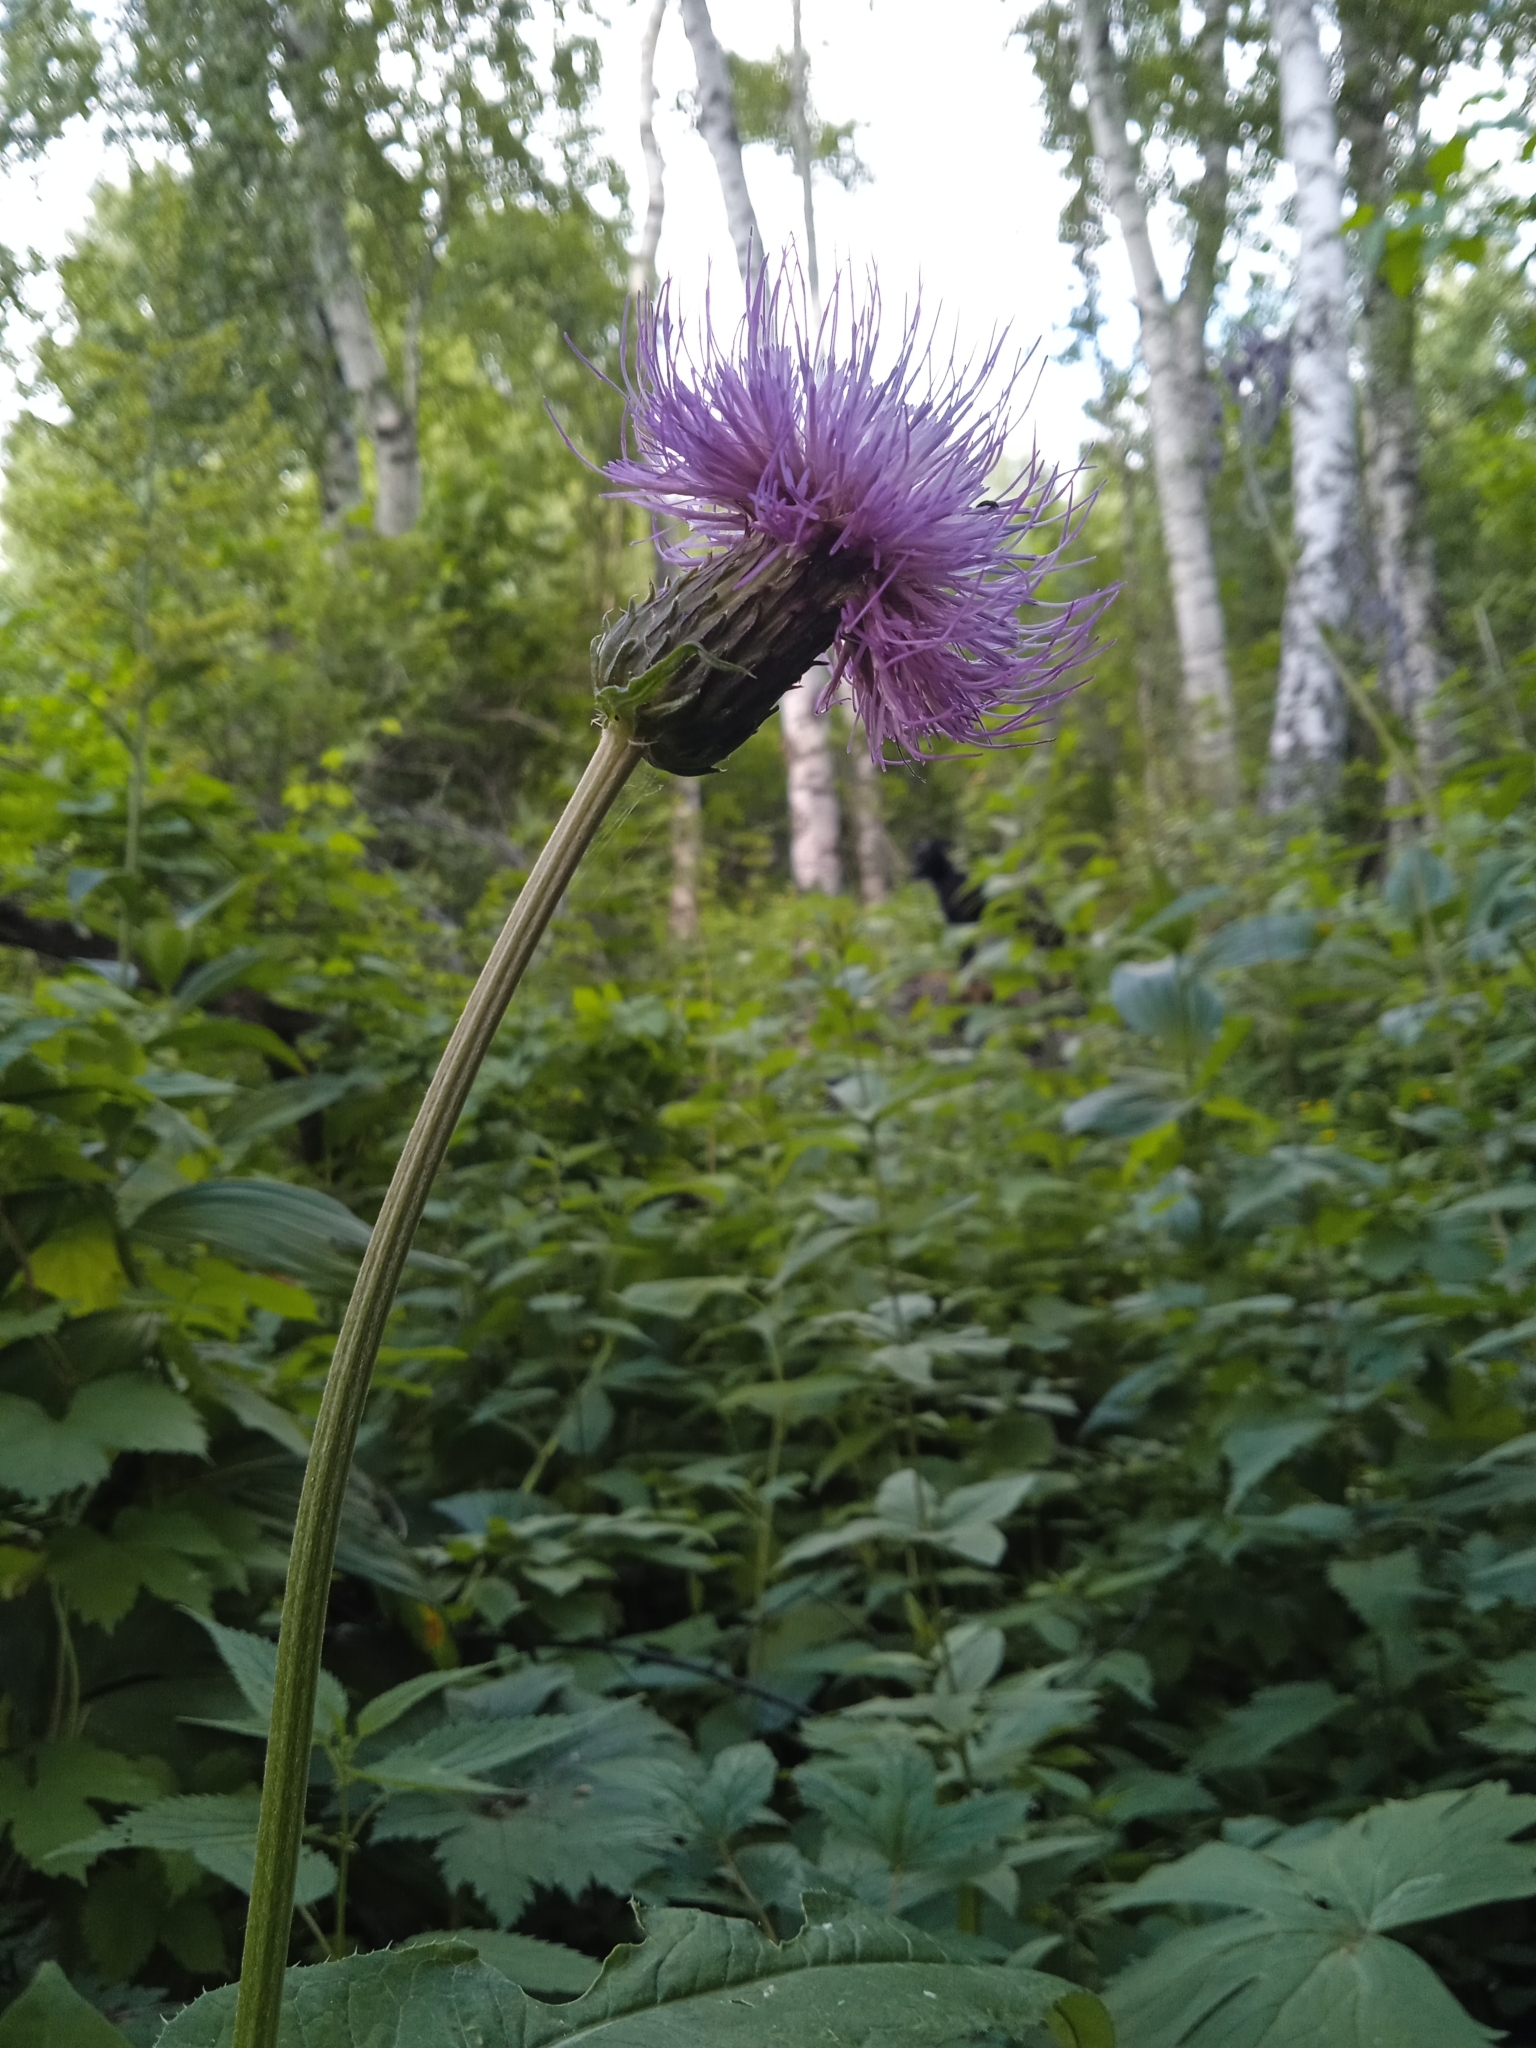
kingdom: Plantae
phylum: Tracheophyta
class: Magnoliopsida
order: Asterales
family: Asteraceae
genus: Cirsium
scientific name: Cirsium heterophyllum
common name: Melancholy thistle
